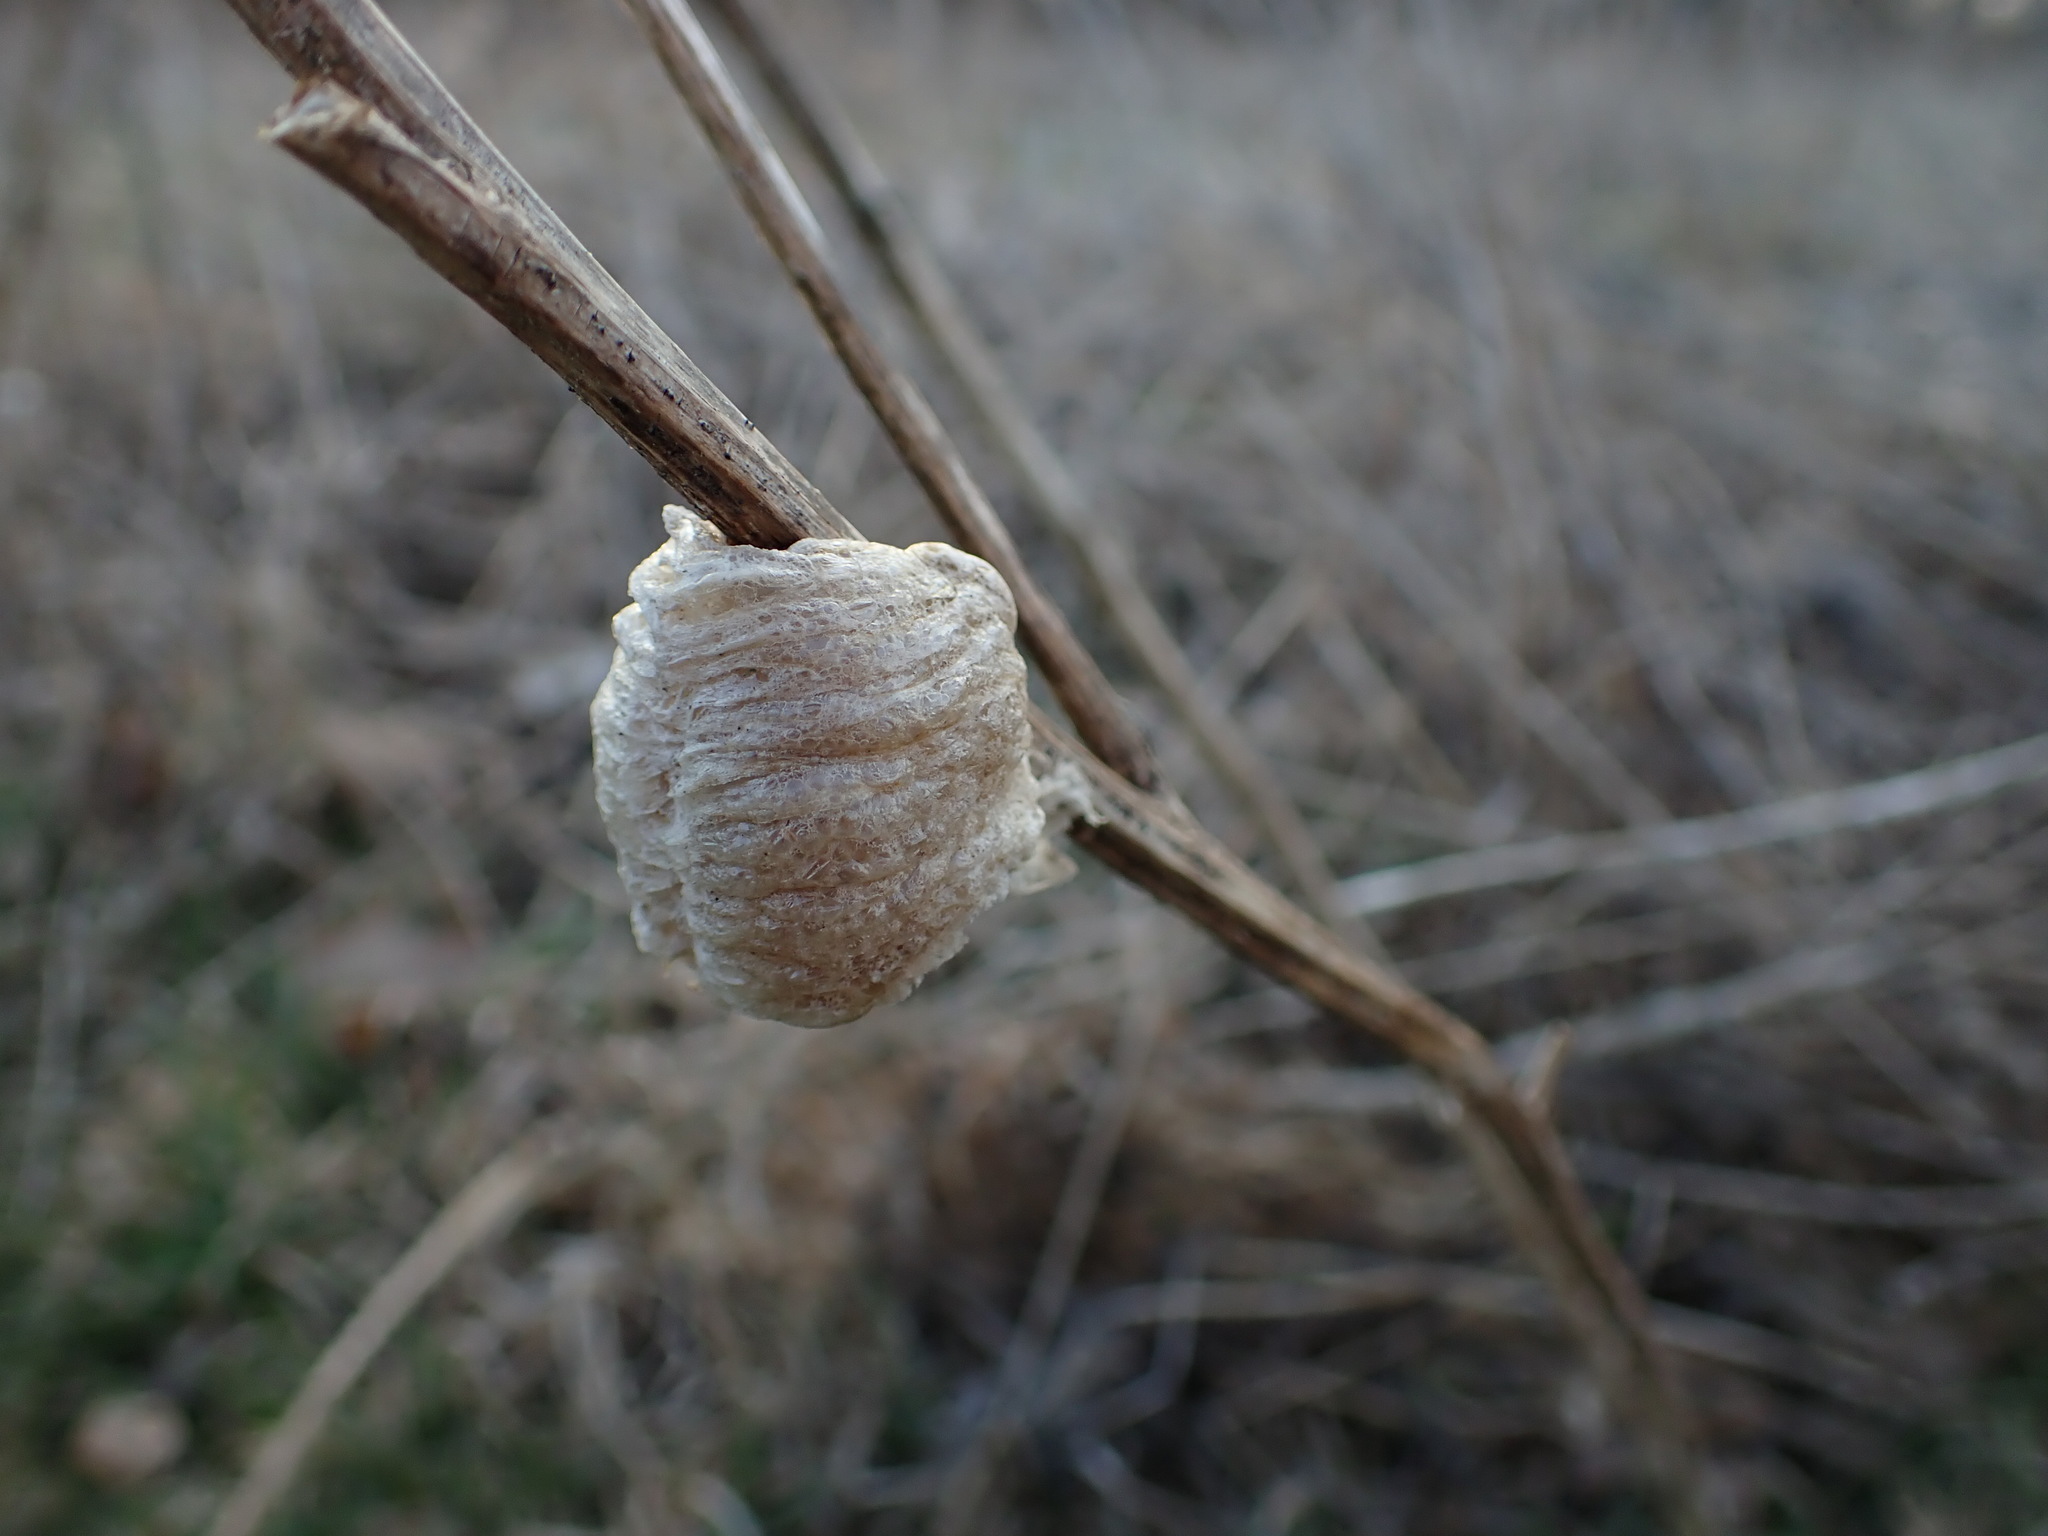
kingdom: Animalia
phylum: Arthropoda
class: Insecta
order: Mantodea
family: Mantidae
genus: Tenodera
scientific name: Tenodera sinensis
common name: Chinese mantis
